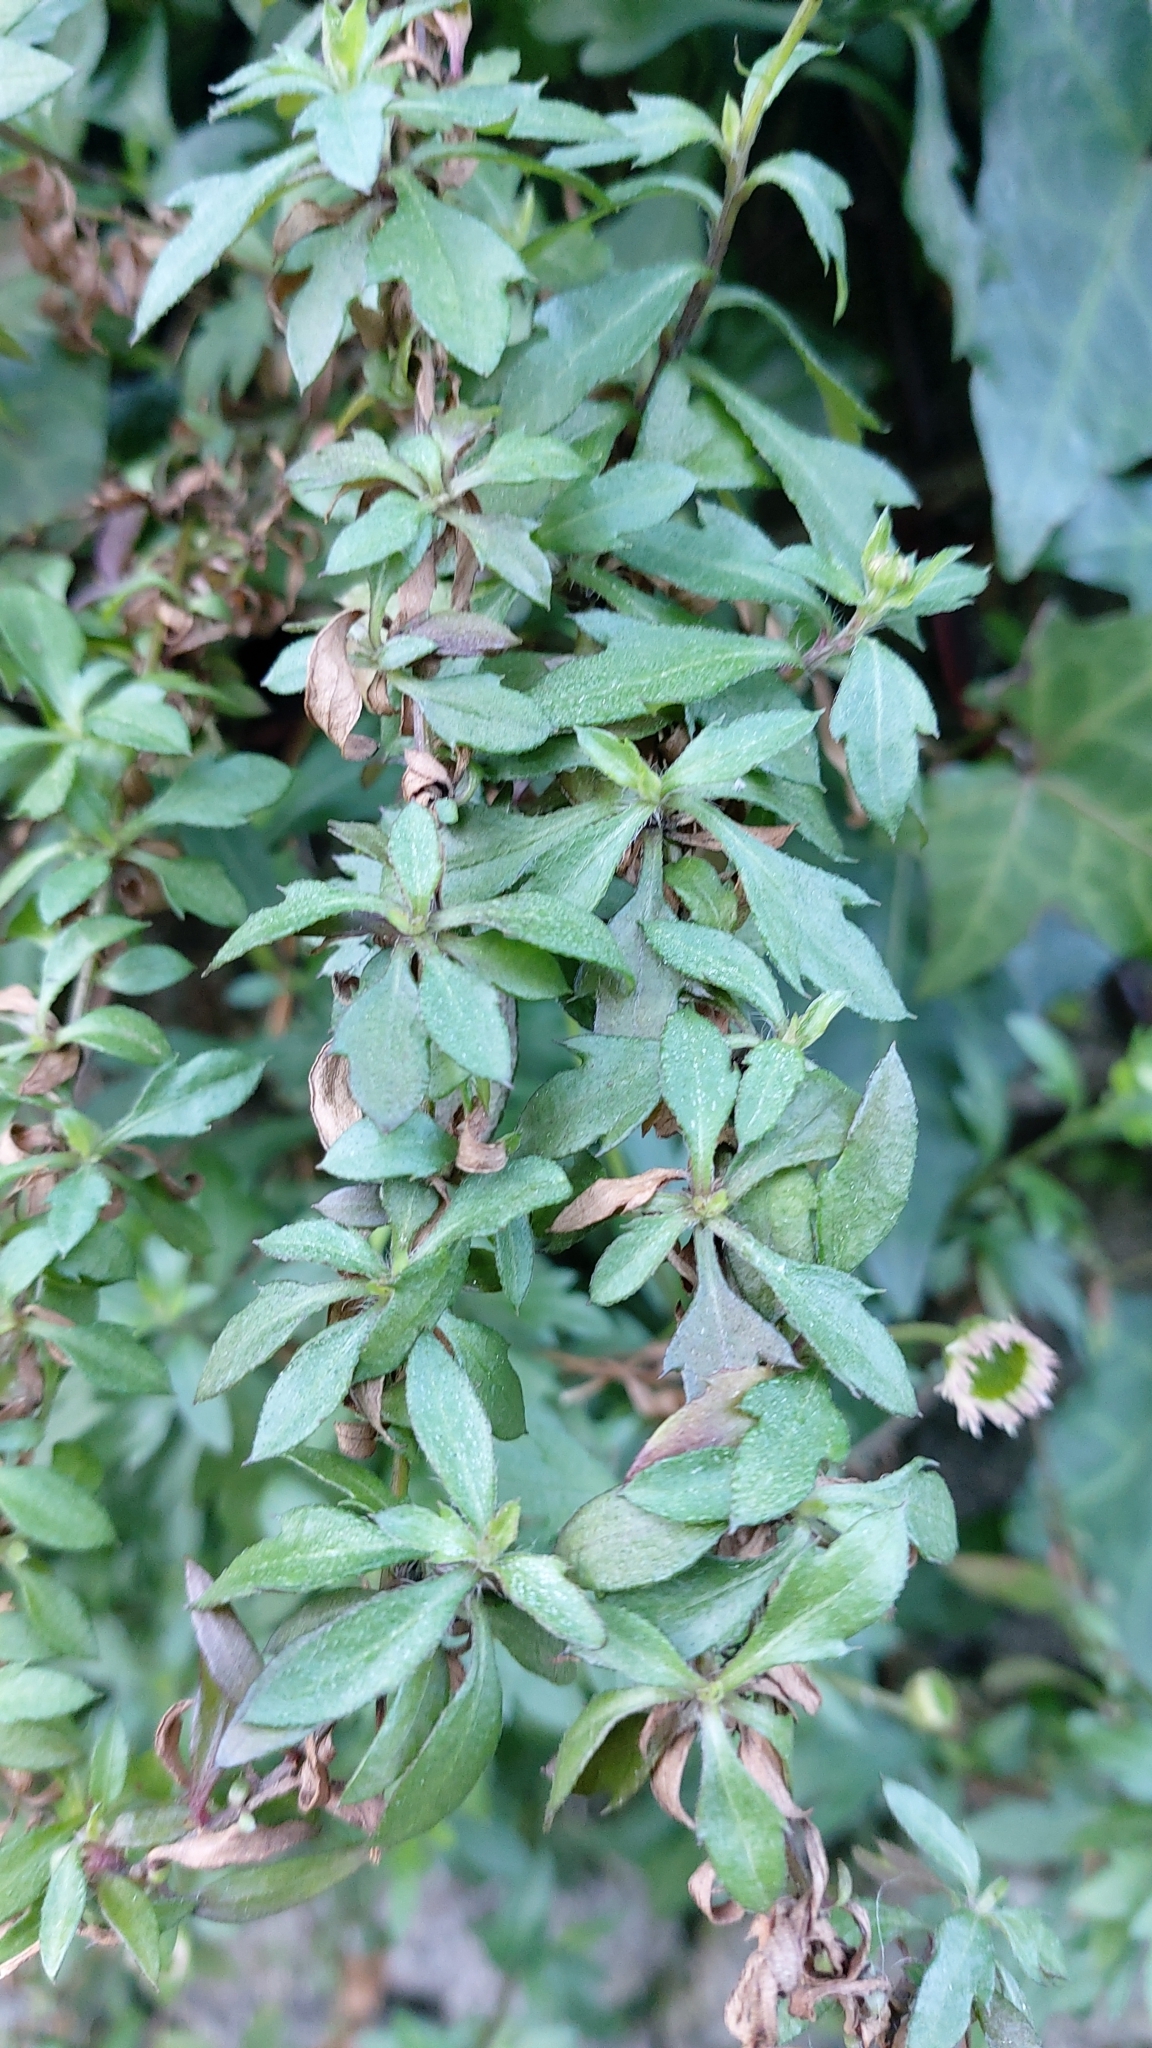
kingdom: Plantae
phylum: Tracheophyta
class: Magnoliopsida
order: Asterales
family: Asteraceae
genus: Erigeron
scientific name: Erigeron karvinskianus
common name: Mexican fleabane
